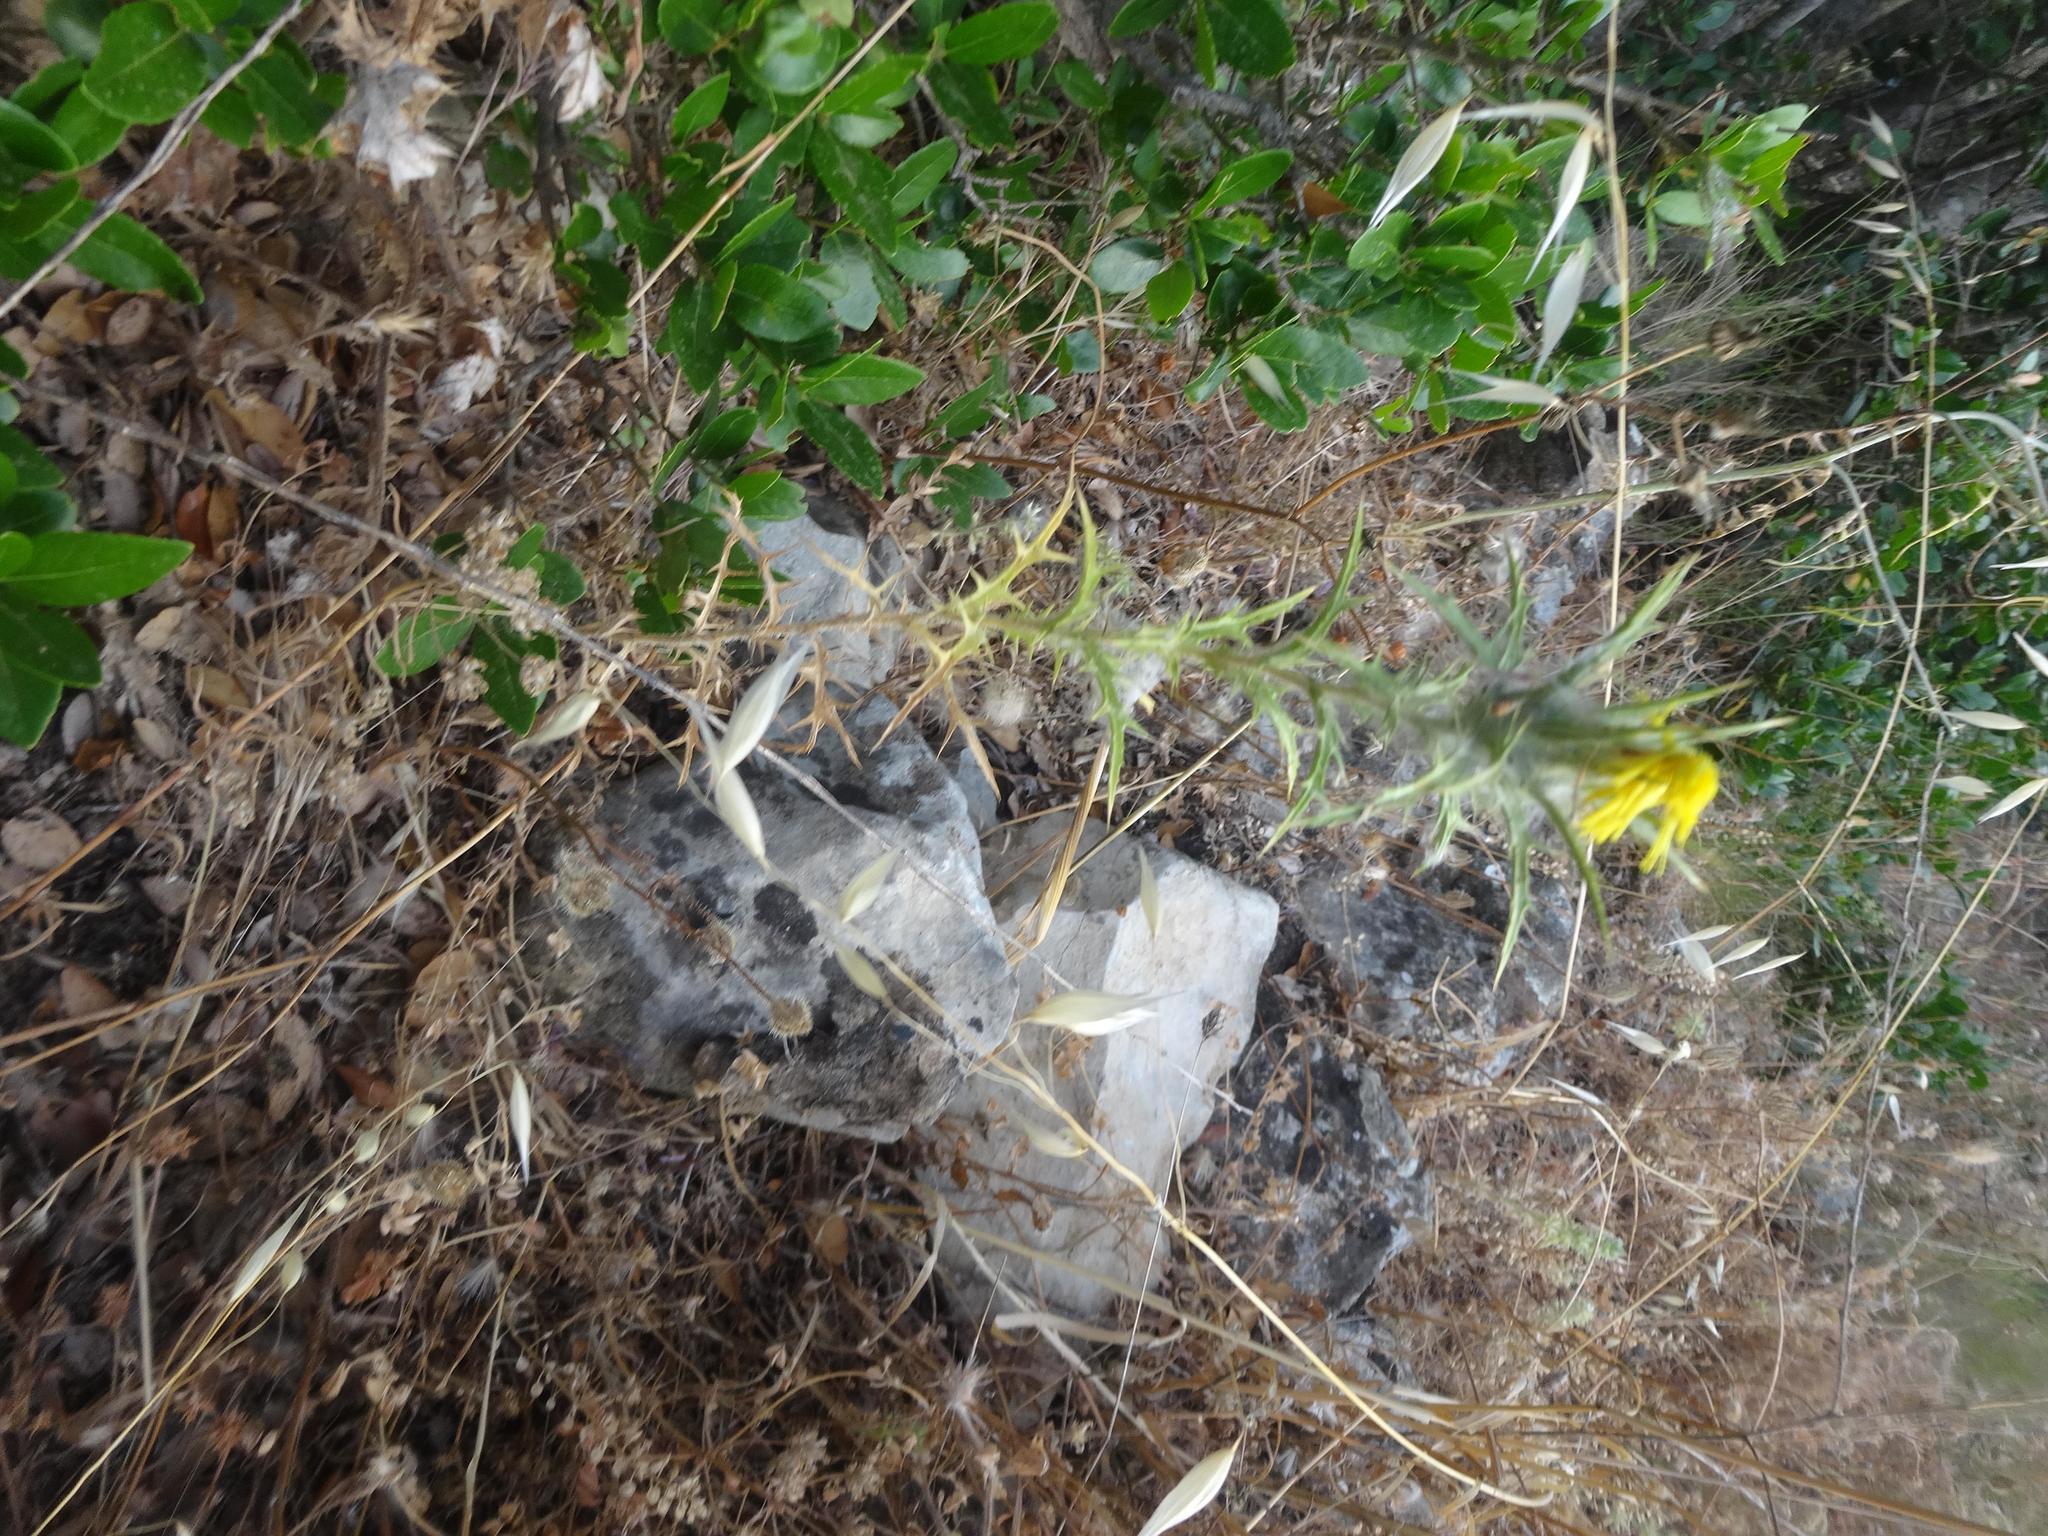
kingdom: Plantae
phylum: Tracheophyta
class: Magnoliopsida
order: Asterales
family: Asteraceae
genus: Carthamus
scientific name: Carthamus lanatus
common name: Downy safflower
